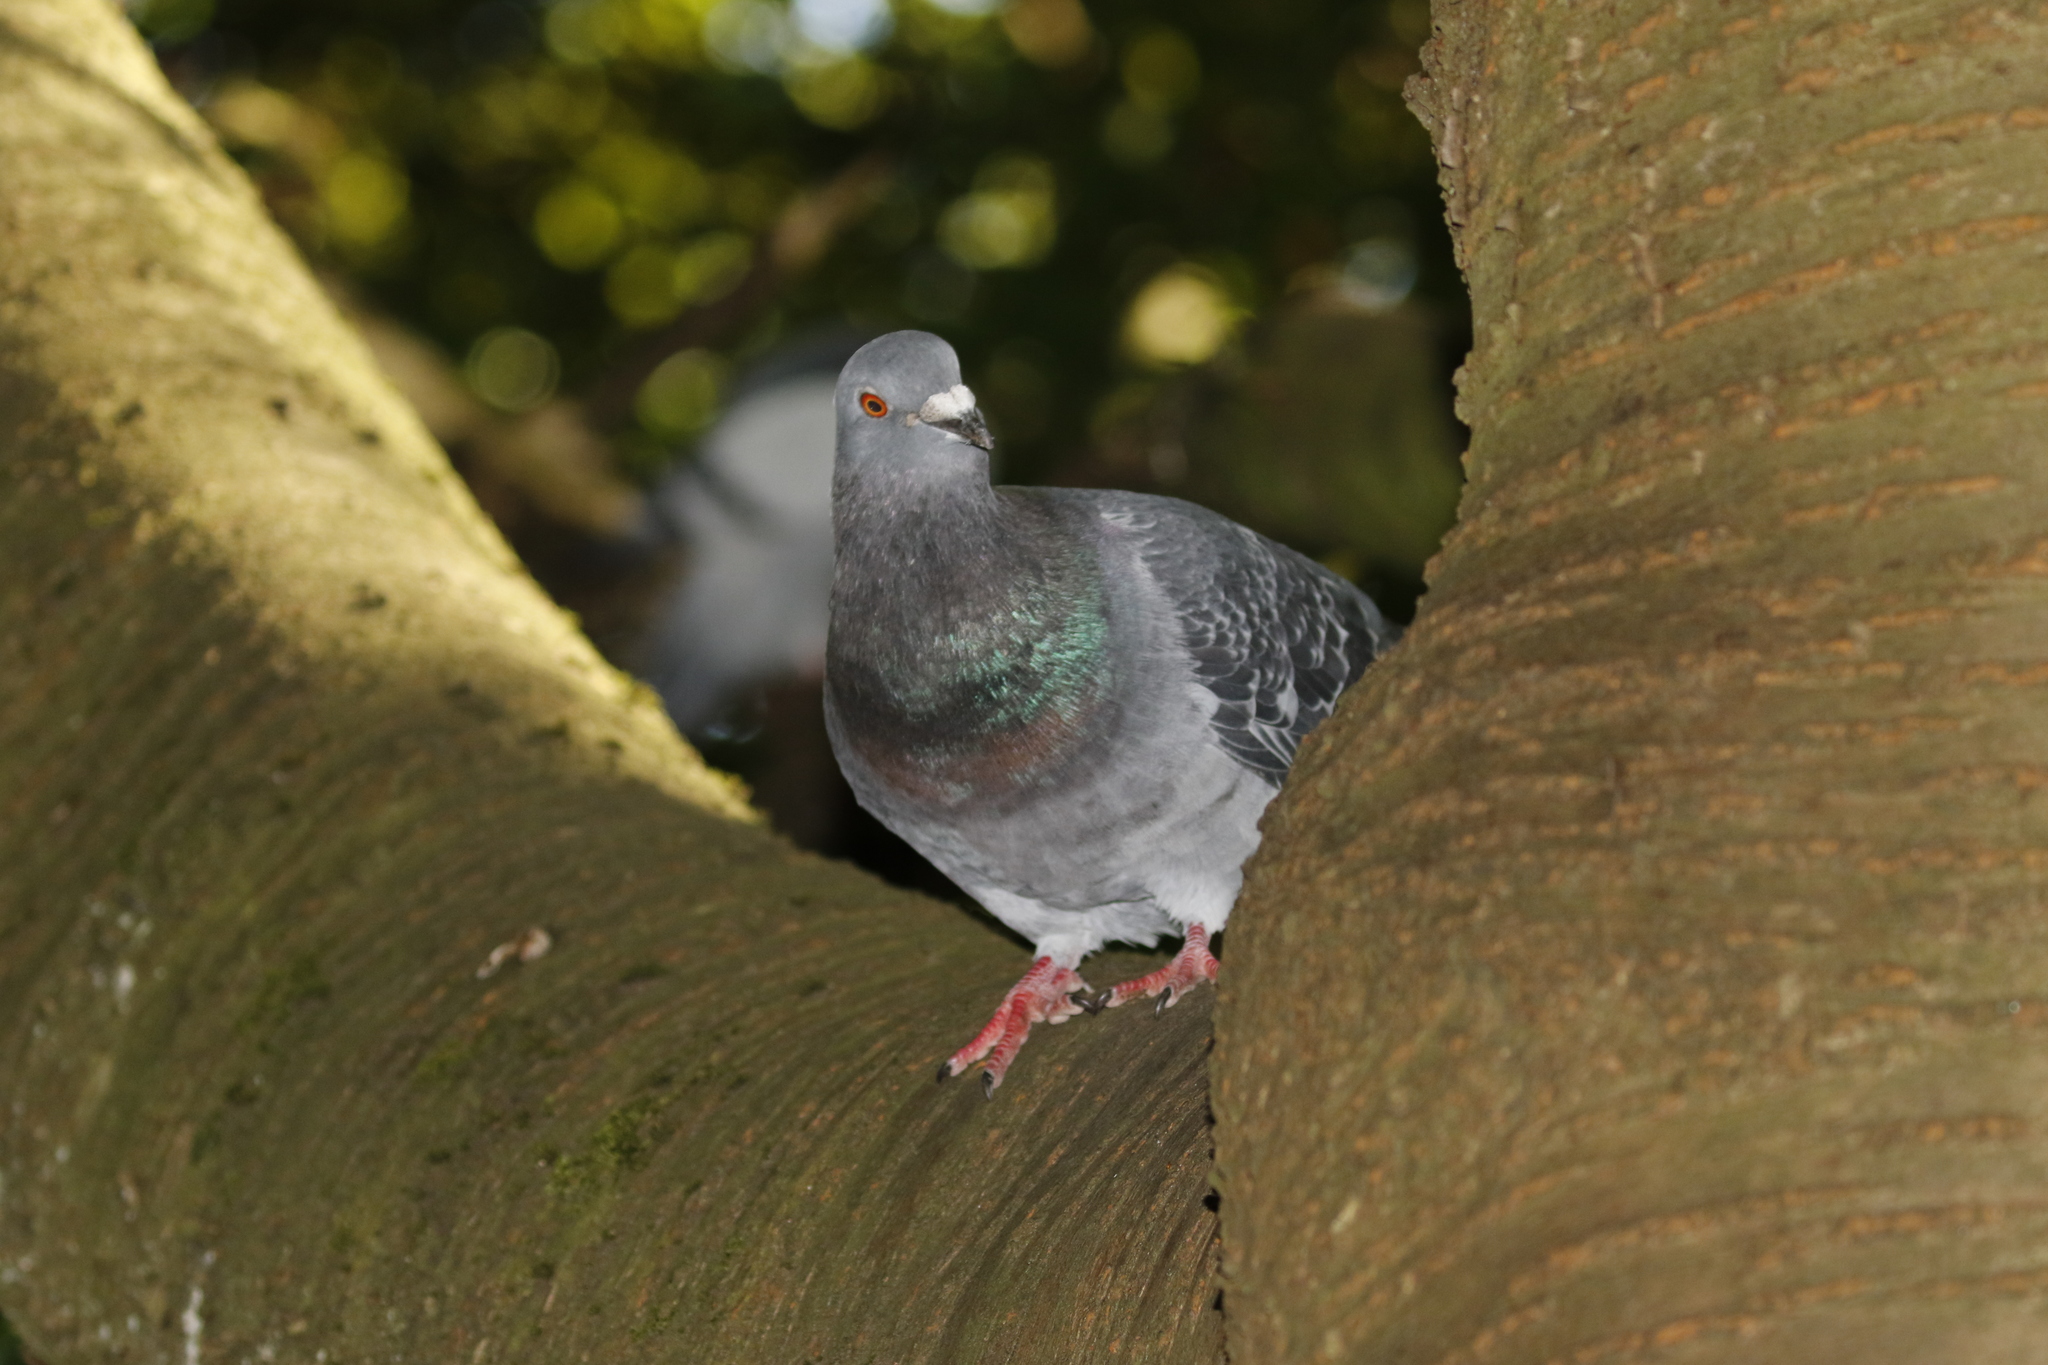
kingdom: Animalia
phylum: Chordata
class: Aves
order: Columbiformes
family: Columbidae
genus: Columba
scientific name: Columba livia
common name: Rock pigeon
